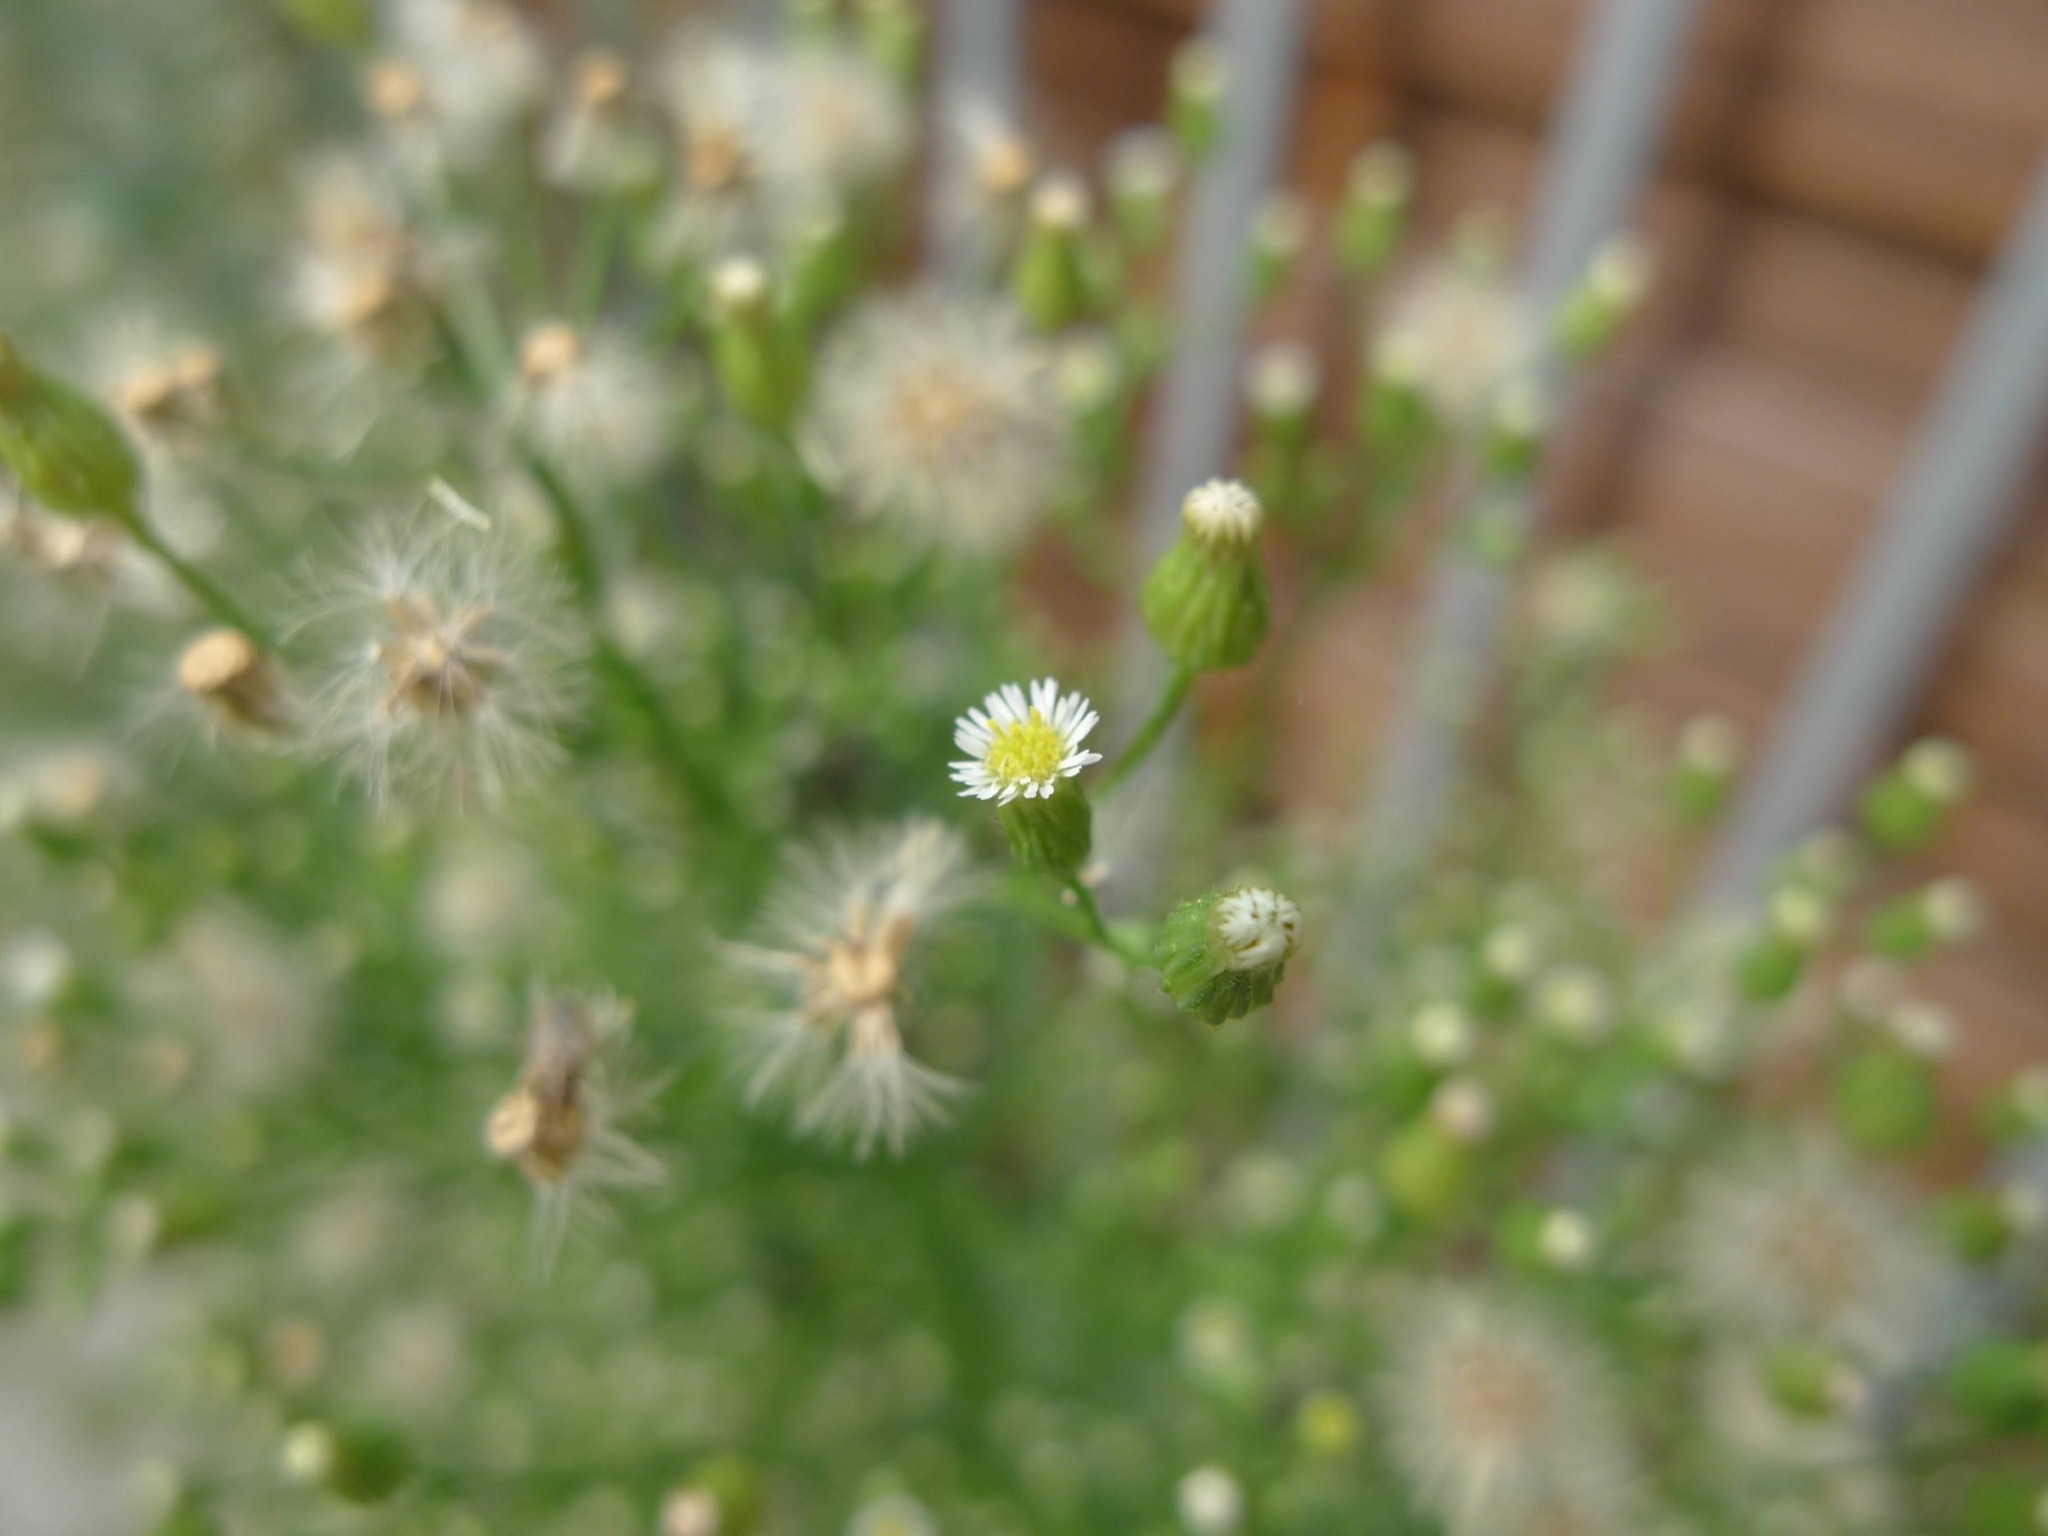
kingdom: Plantae
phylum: Tracheophyta
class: Magnoliopsida
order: Asterales
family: Asteraceae
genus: Erigeron
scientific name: Erigeron canadensis
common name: Canadian fleabane
